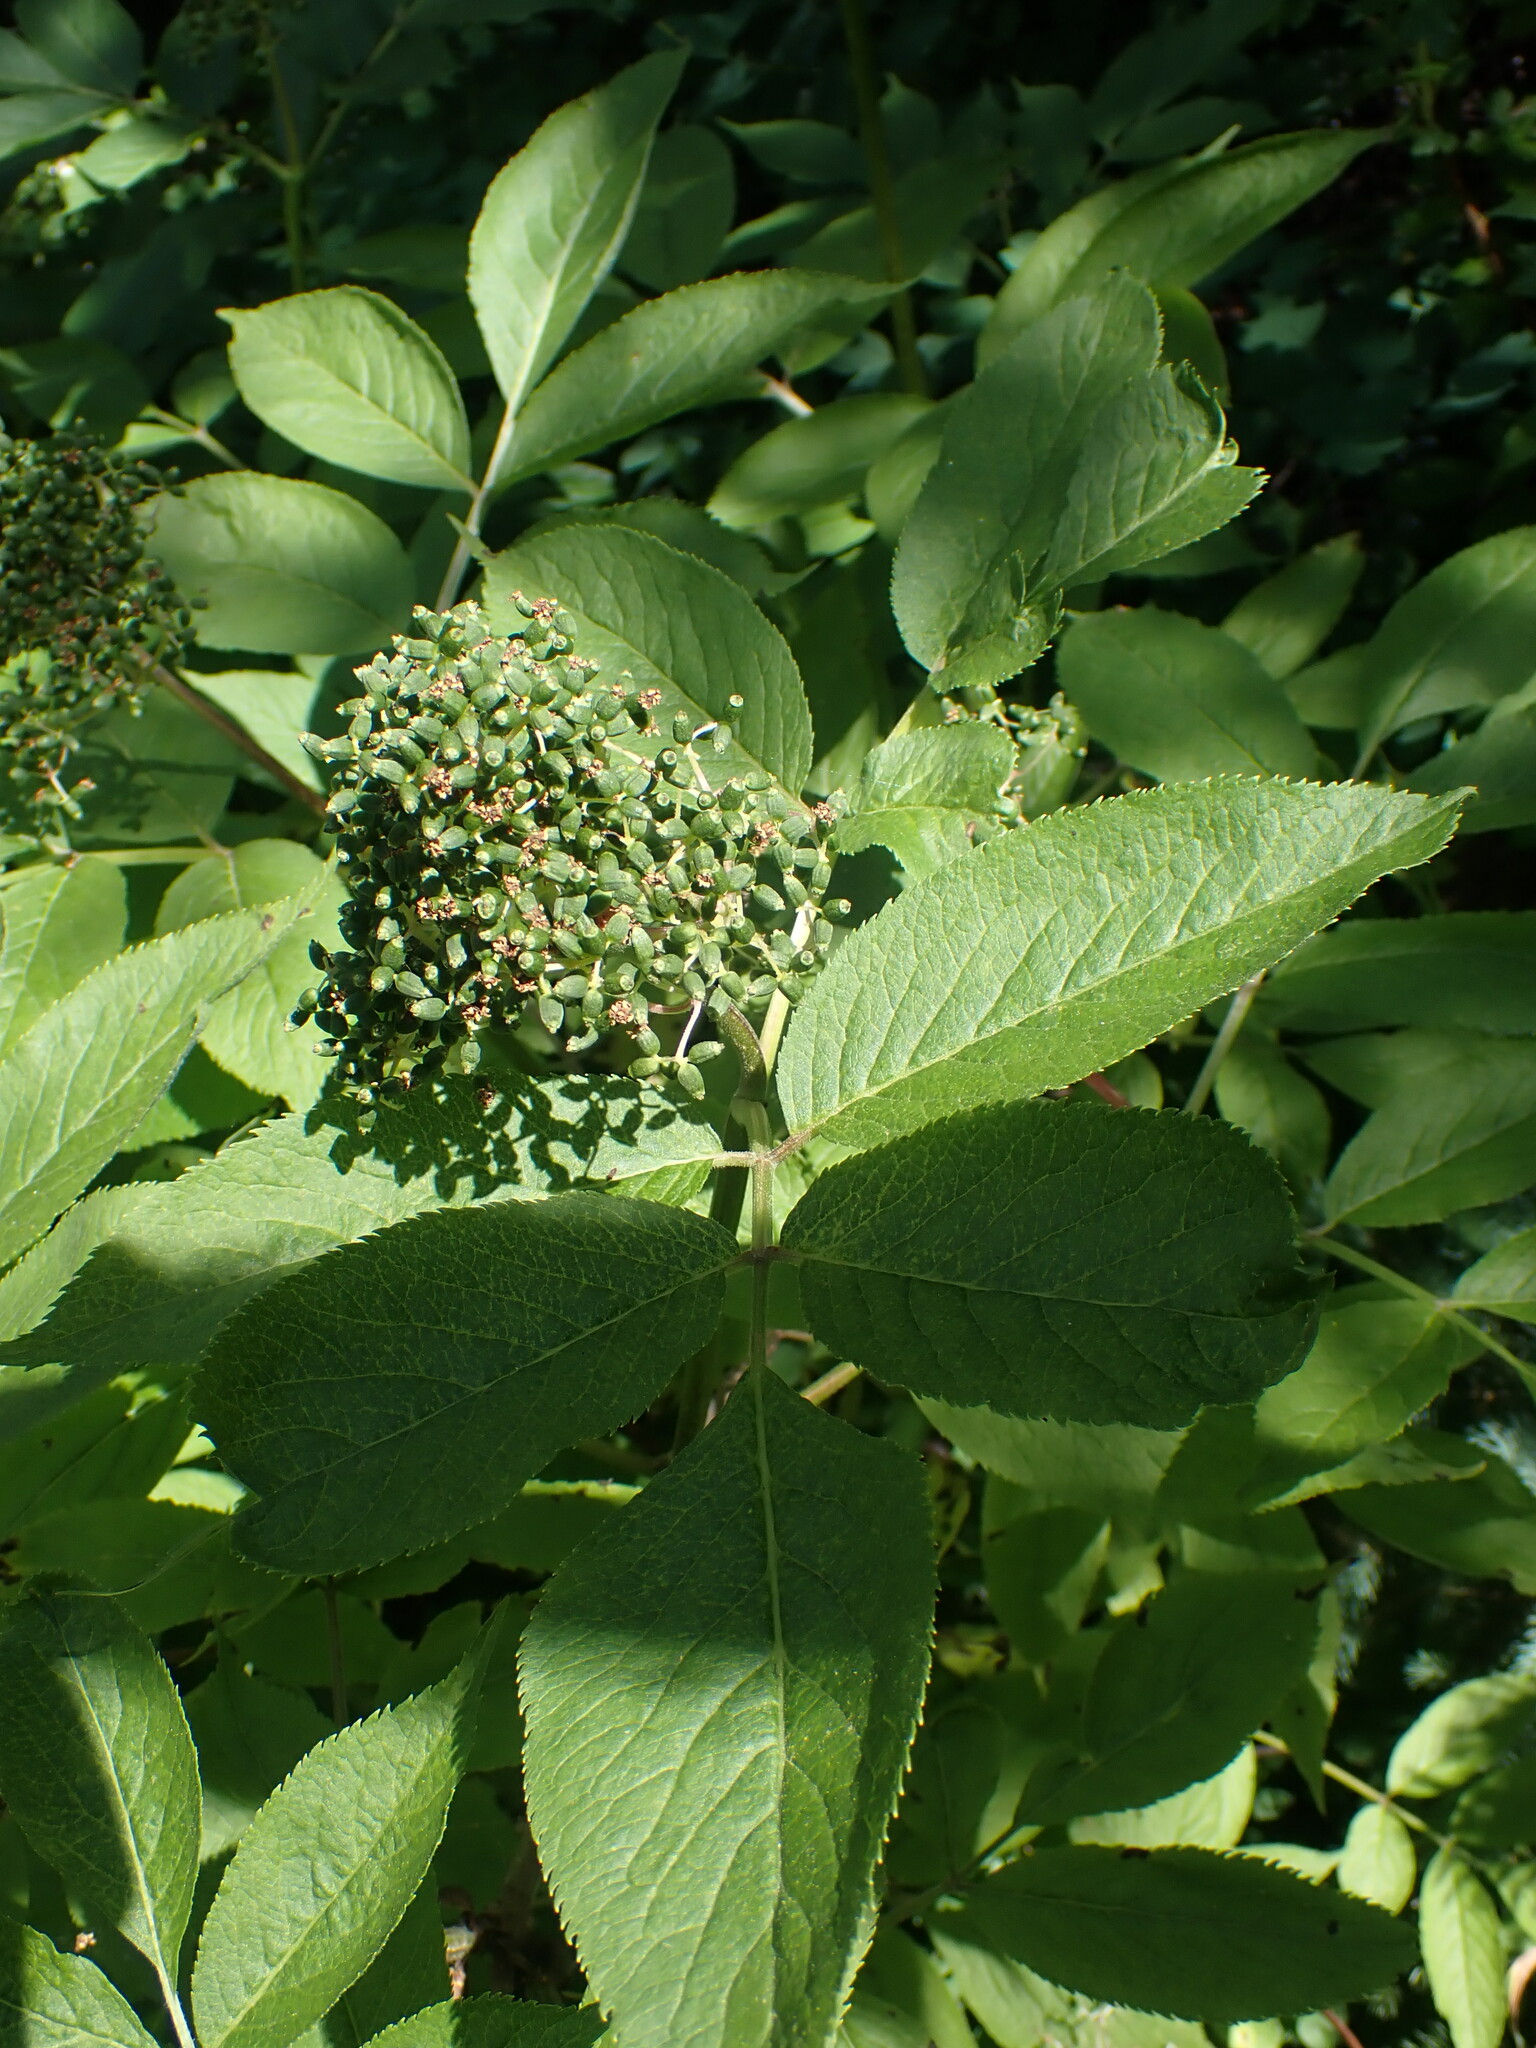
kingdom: Plantae
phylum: Tracheophyta
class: Magnoliopsida
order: Dipsacales
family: Viburnaceae
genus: Sambucus
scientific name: Sambucus racemosa
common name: Red-berried elder
